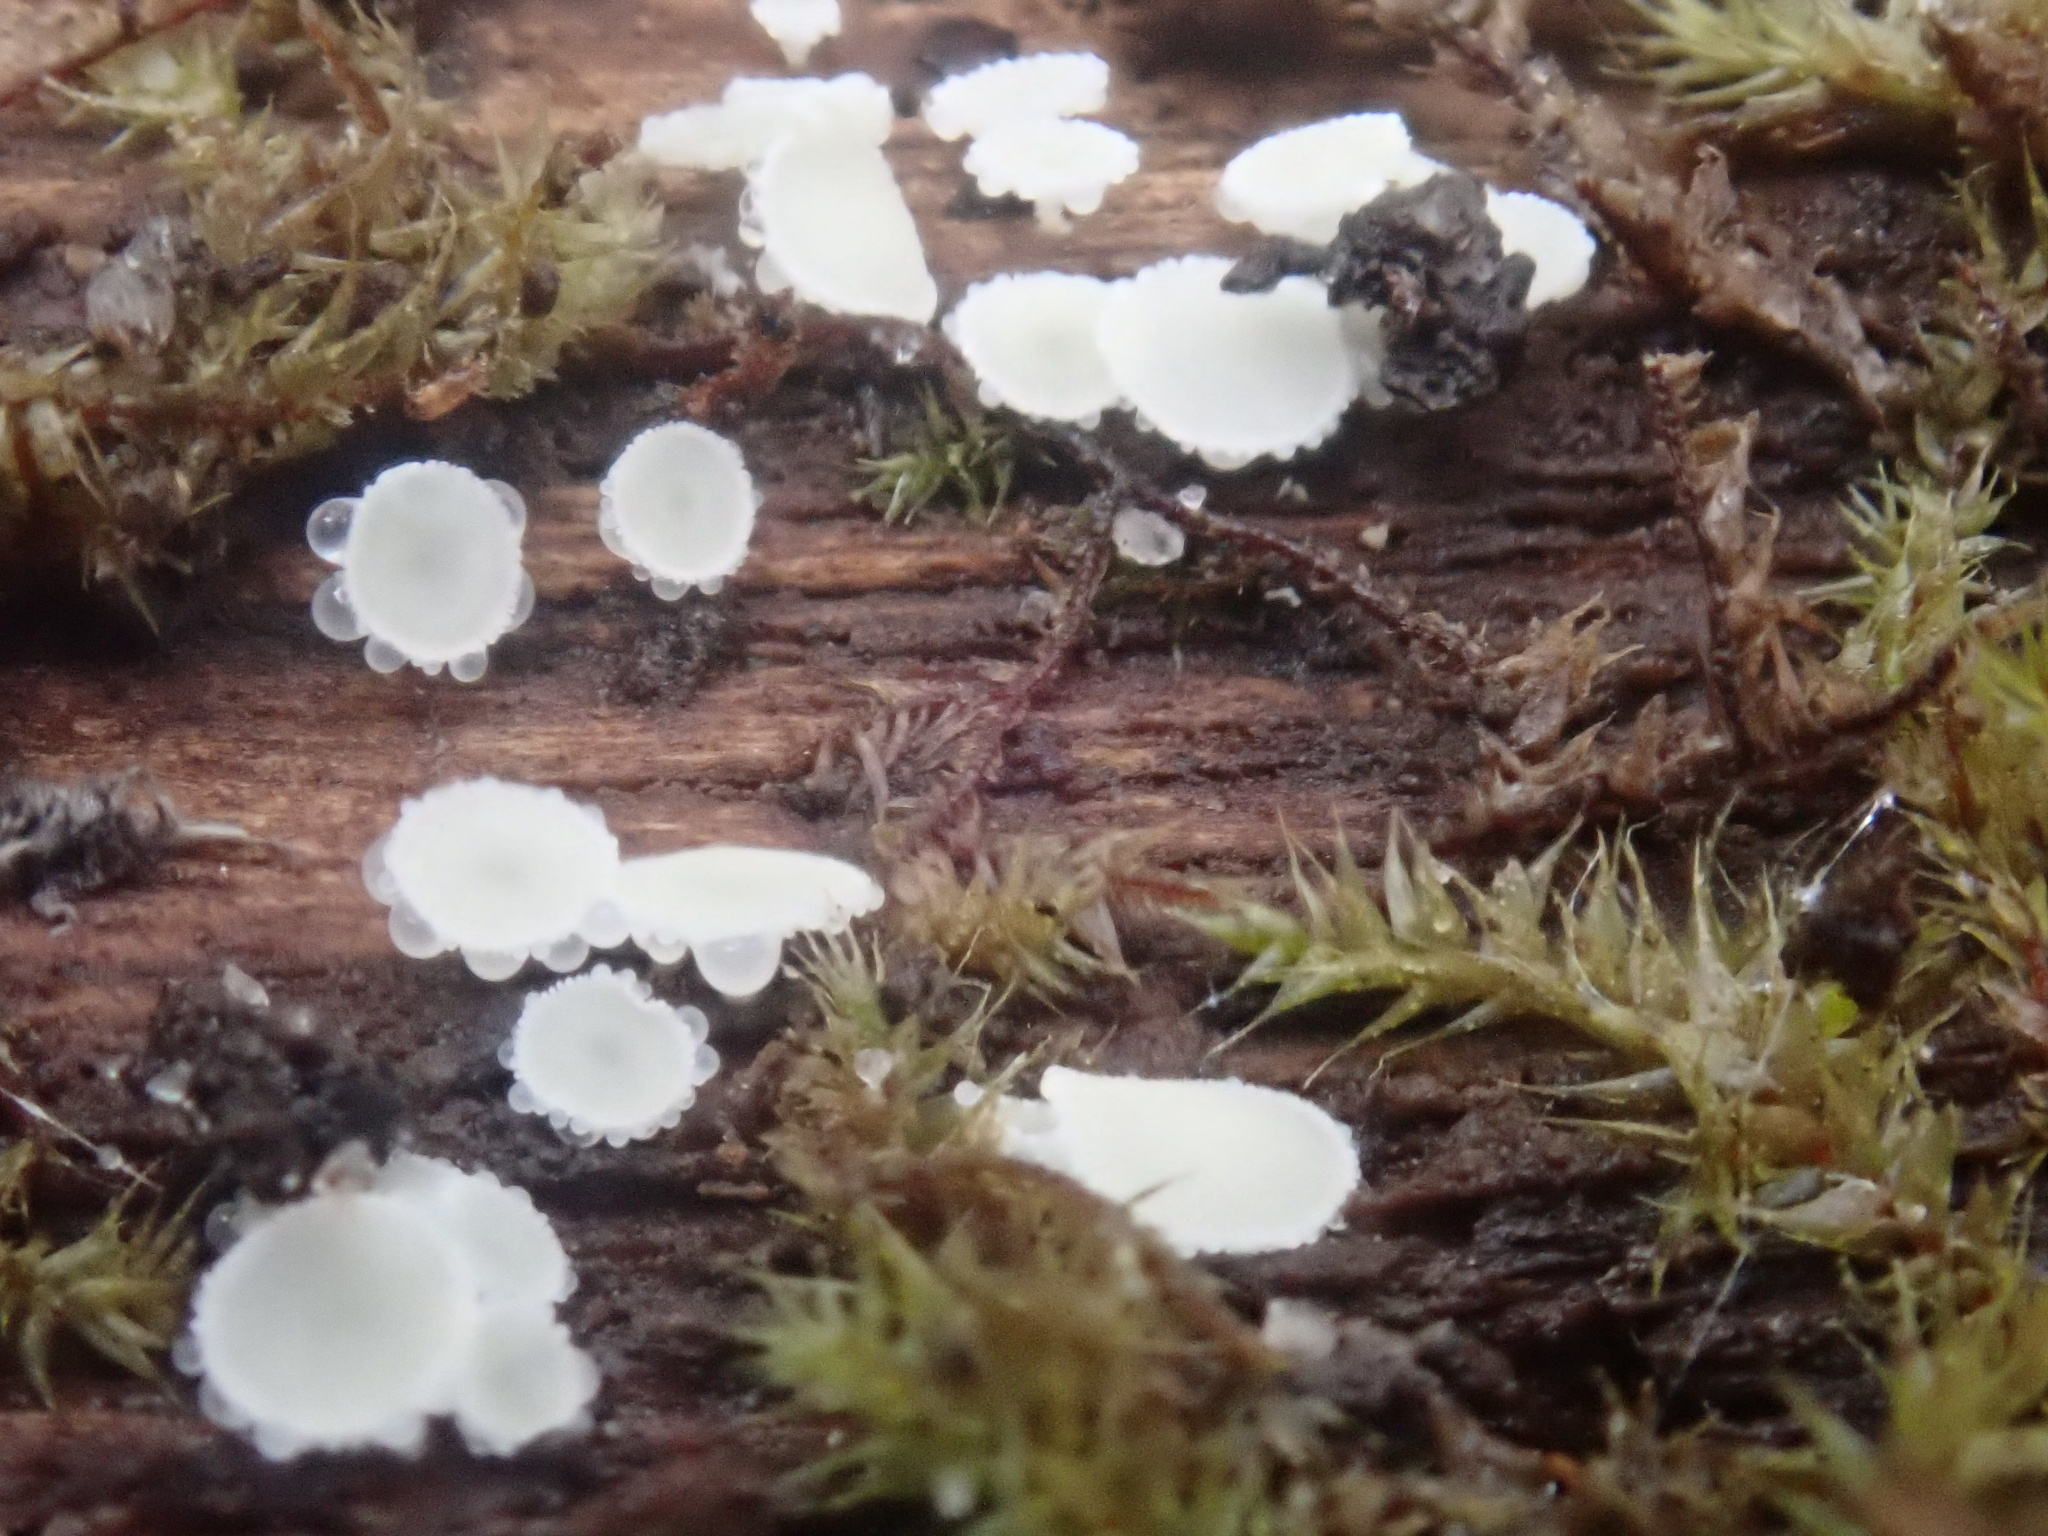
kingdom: Fungi
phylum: Ascomycota
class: Leotiomycetes
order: Helotiales
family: Lachnaceae
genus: Lachnum
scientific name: Lachnum virgineum
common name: Snowy disco
